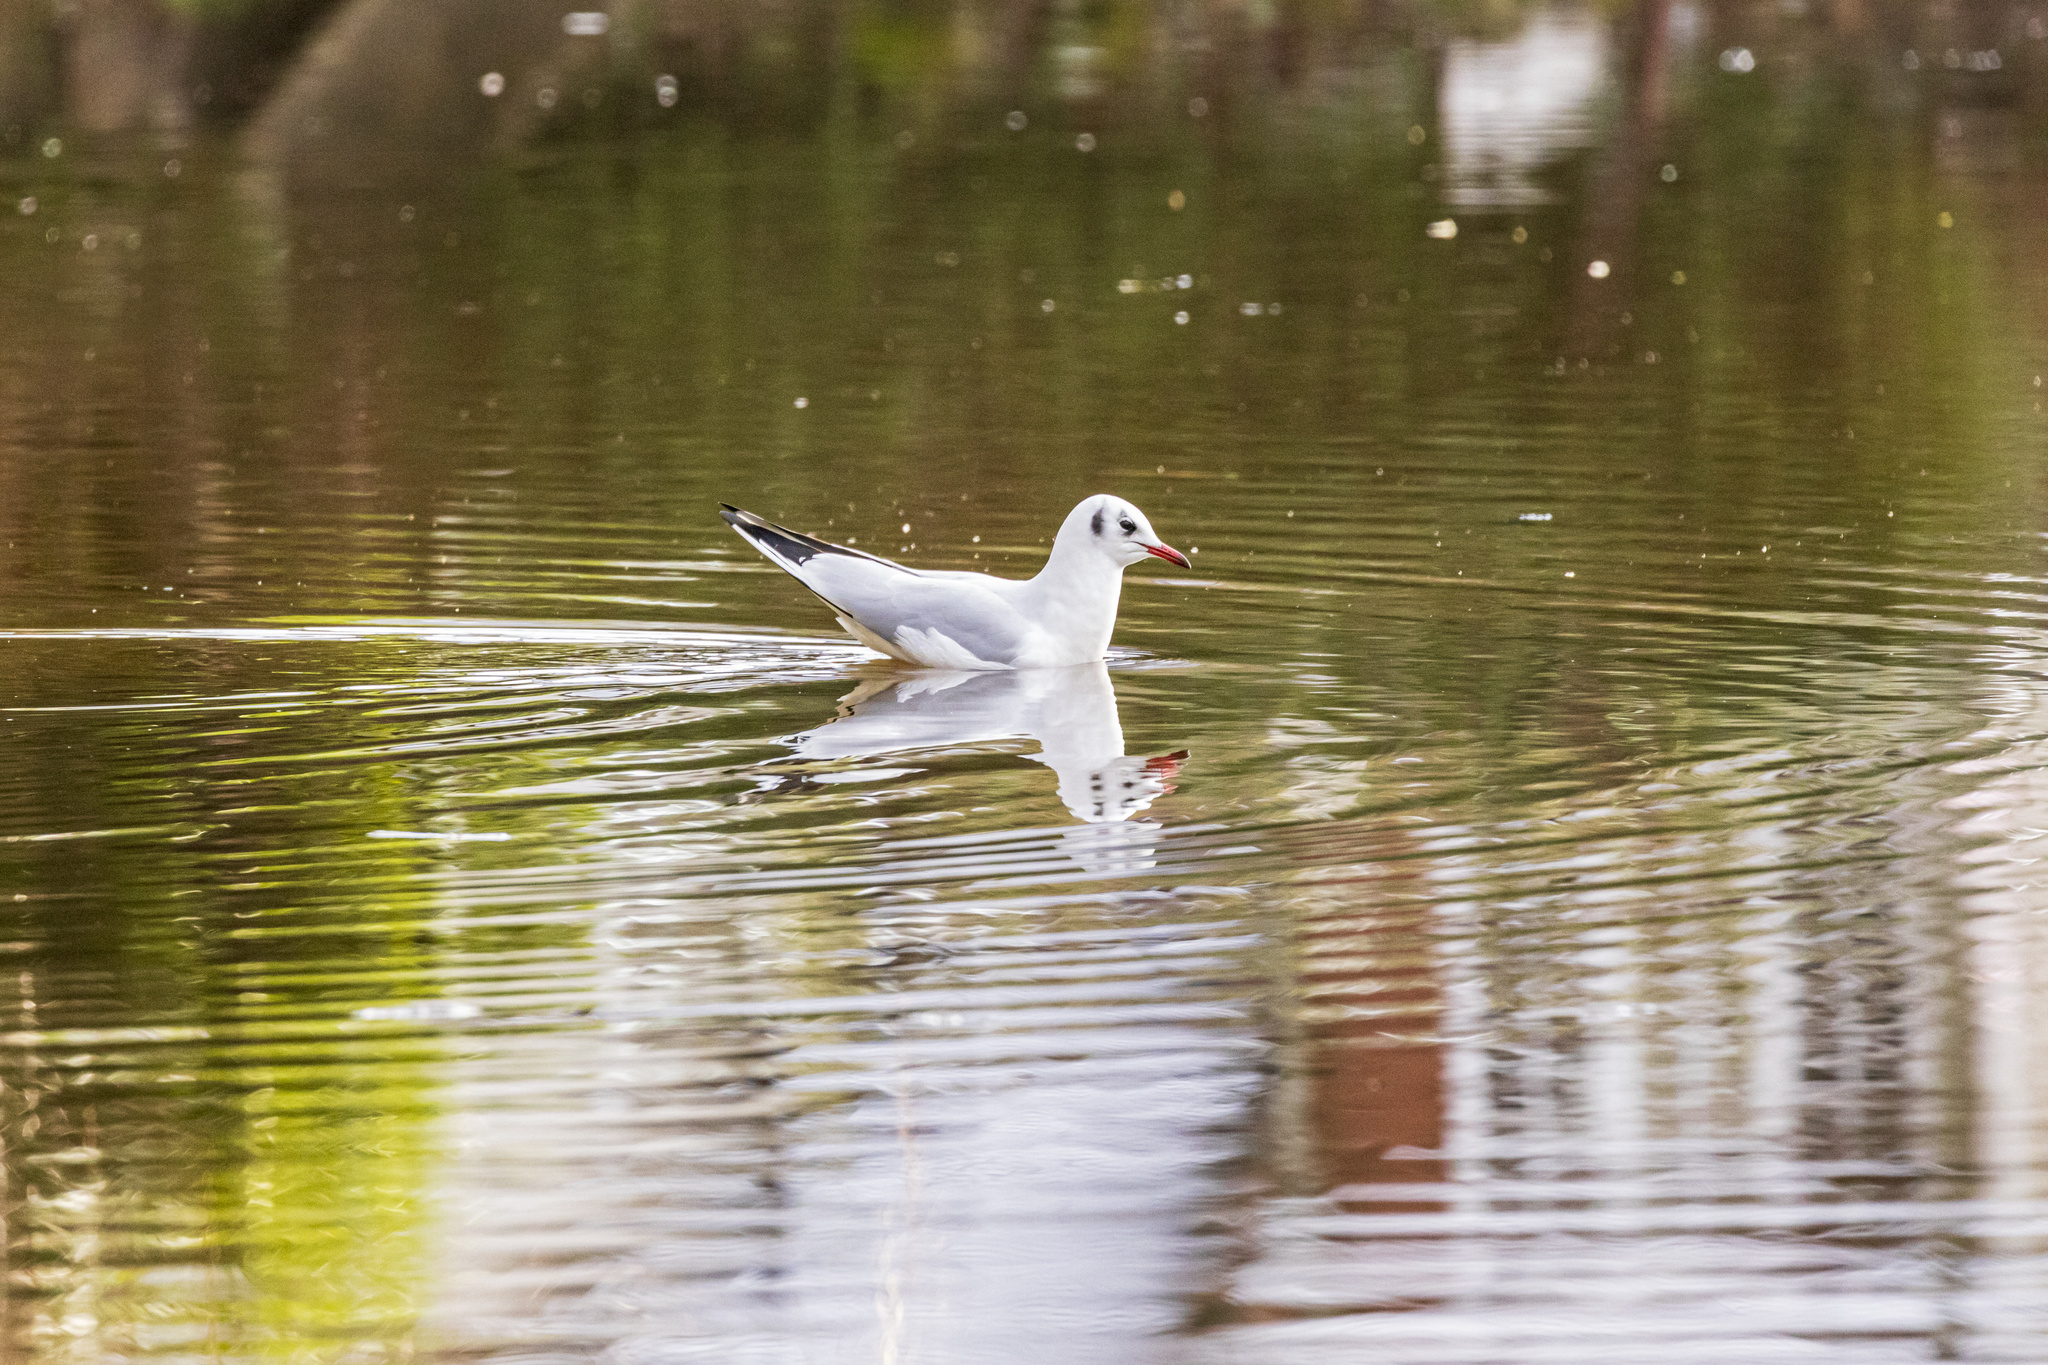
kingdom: Animalia
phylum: Chordata
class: Aves
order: Charadriiformes
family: Laridae
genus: Chroicocephalus
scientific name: Chroicocephalus ridibundus
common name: Black-headed gull
